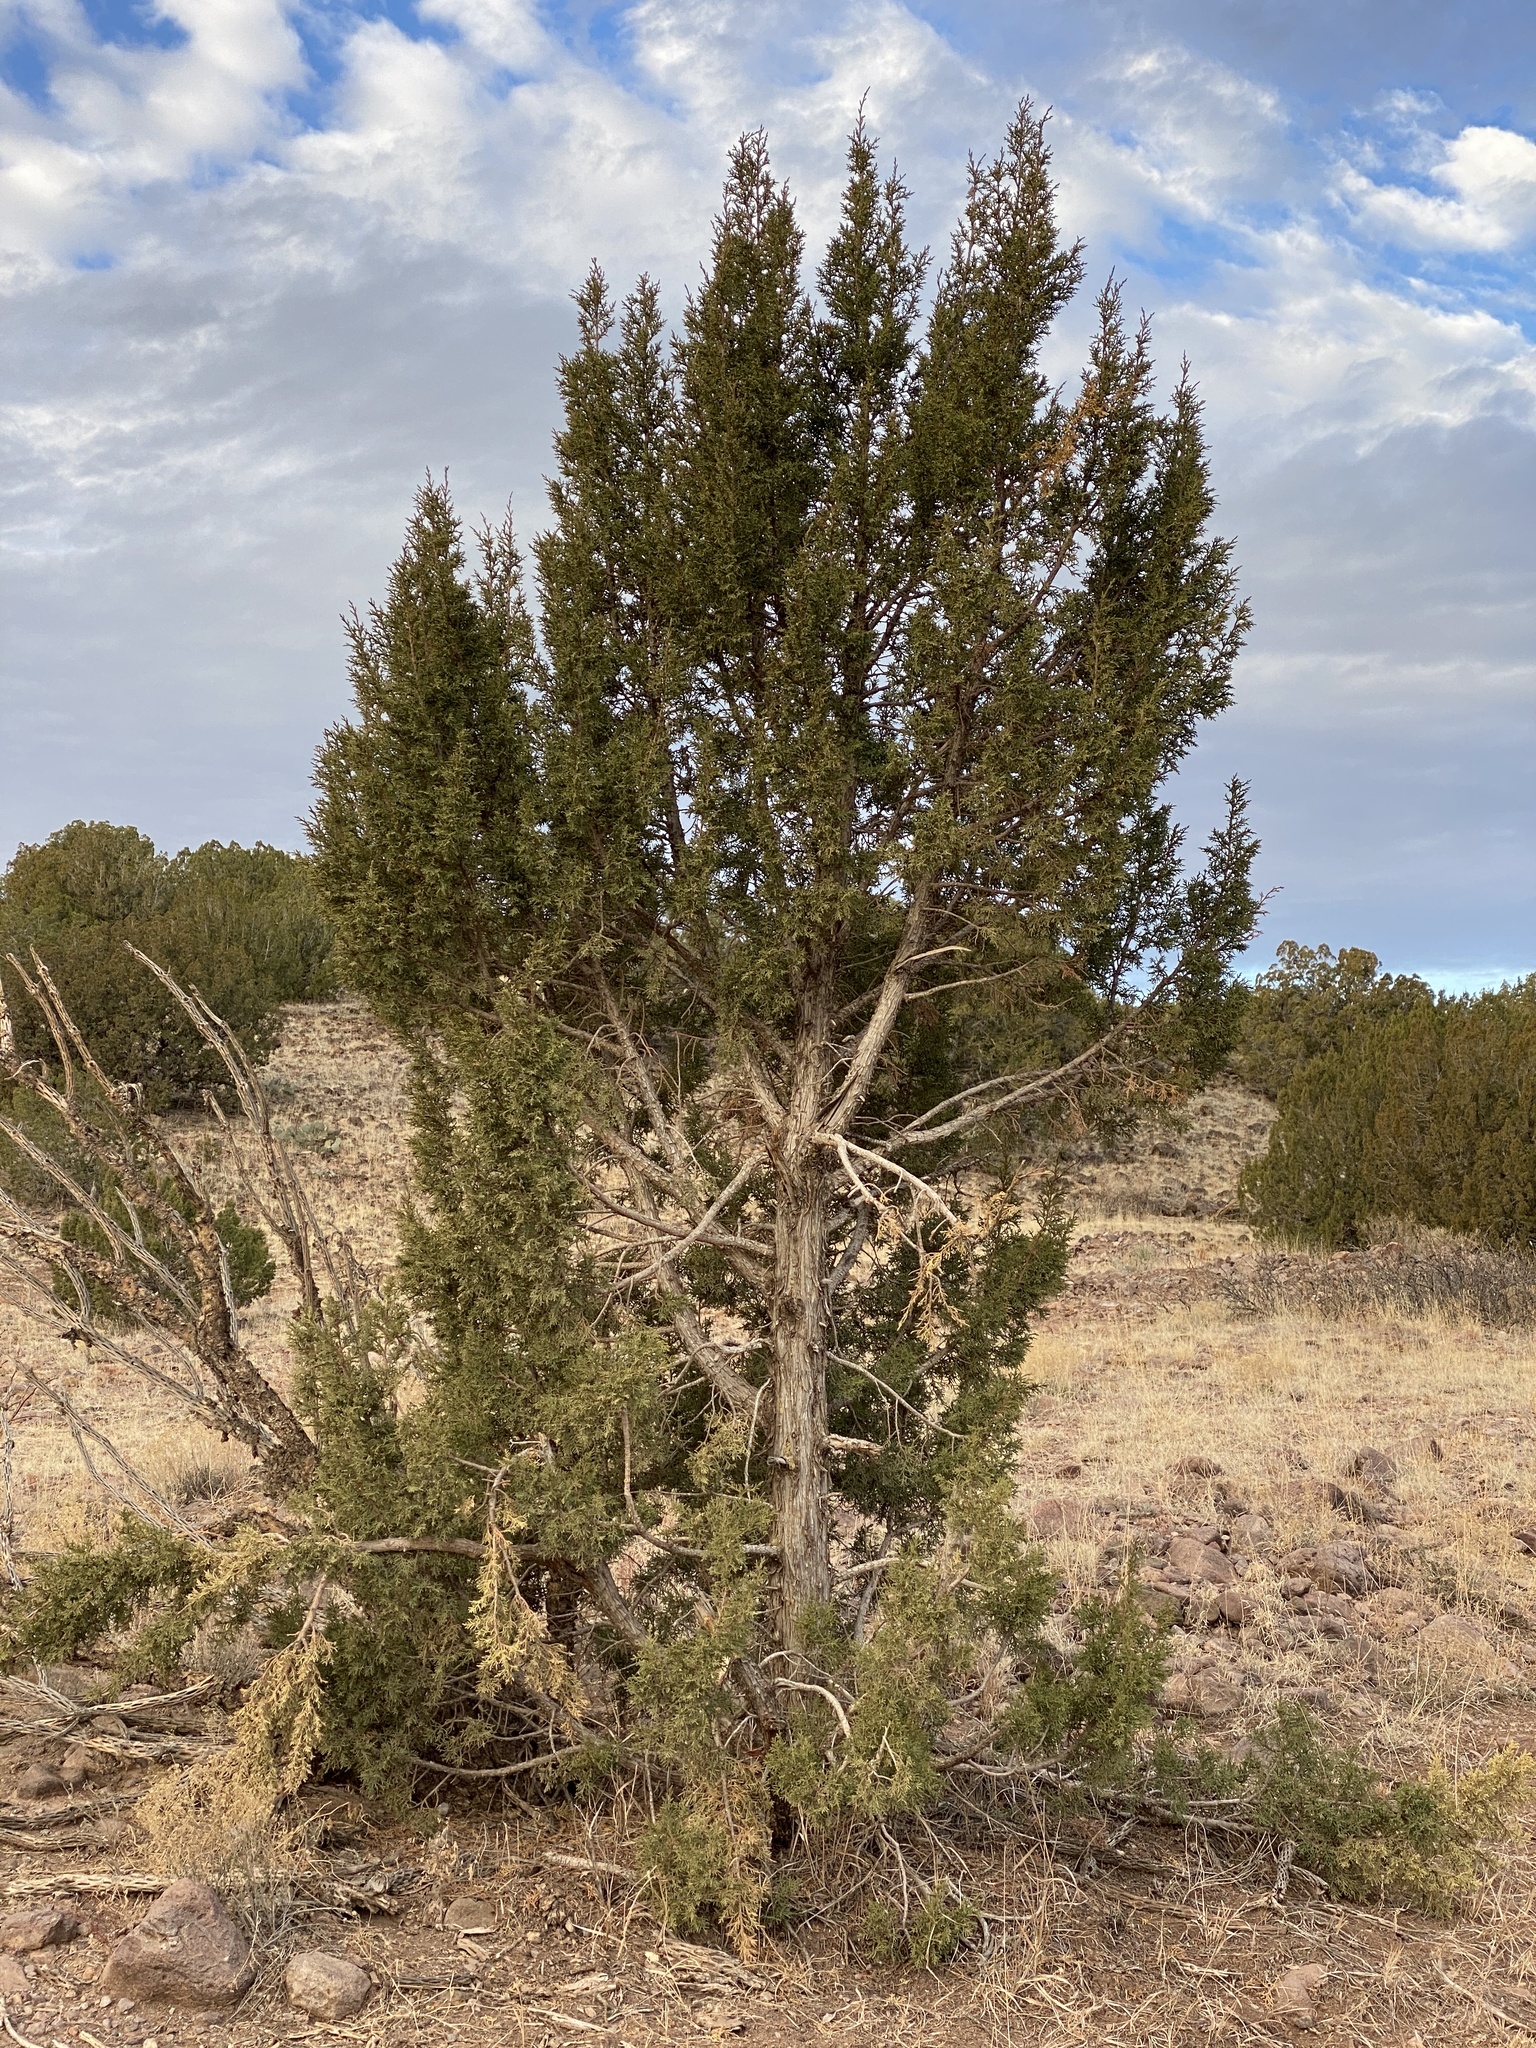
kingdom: Plantae
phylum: Tracheophyta
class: Pinopsida
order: Pinales
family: Cupressaceae
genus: Juniperus
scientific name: Juniperus monosperma
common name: One-seed juniper
